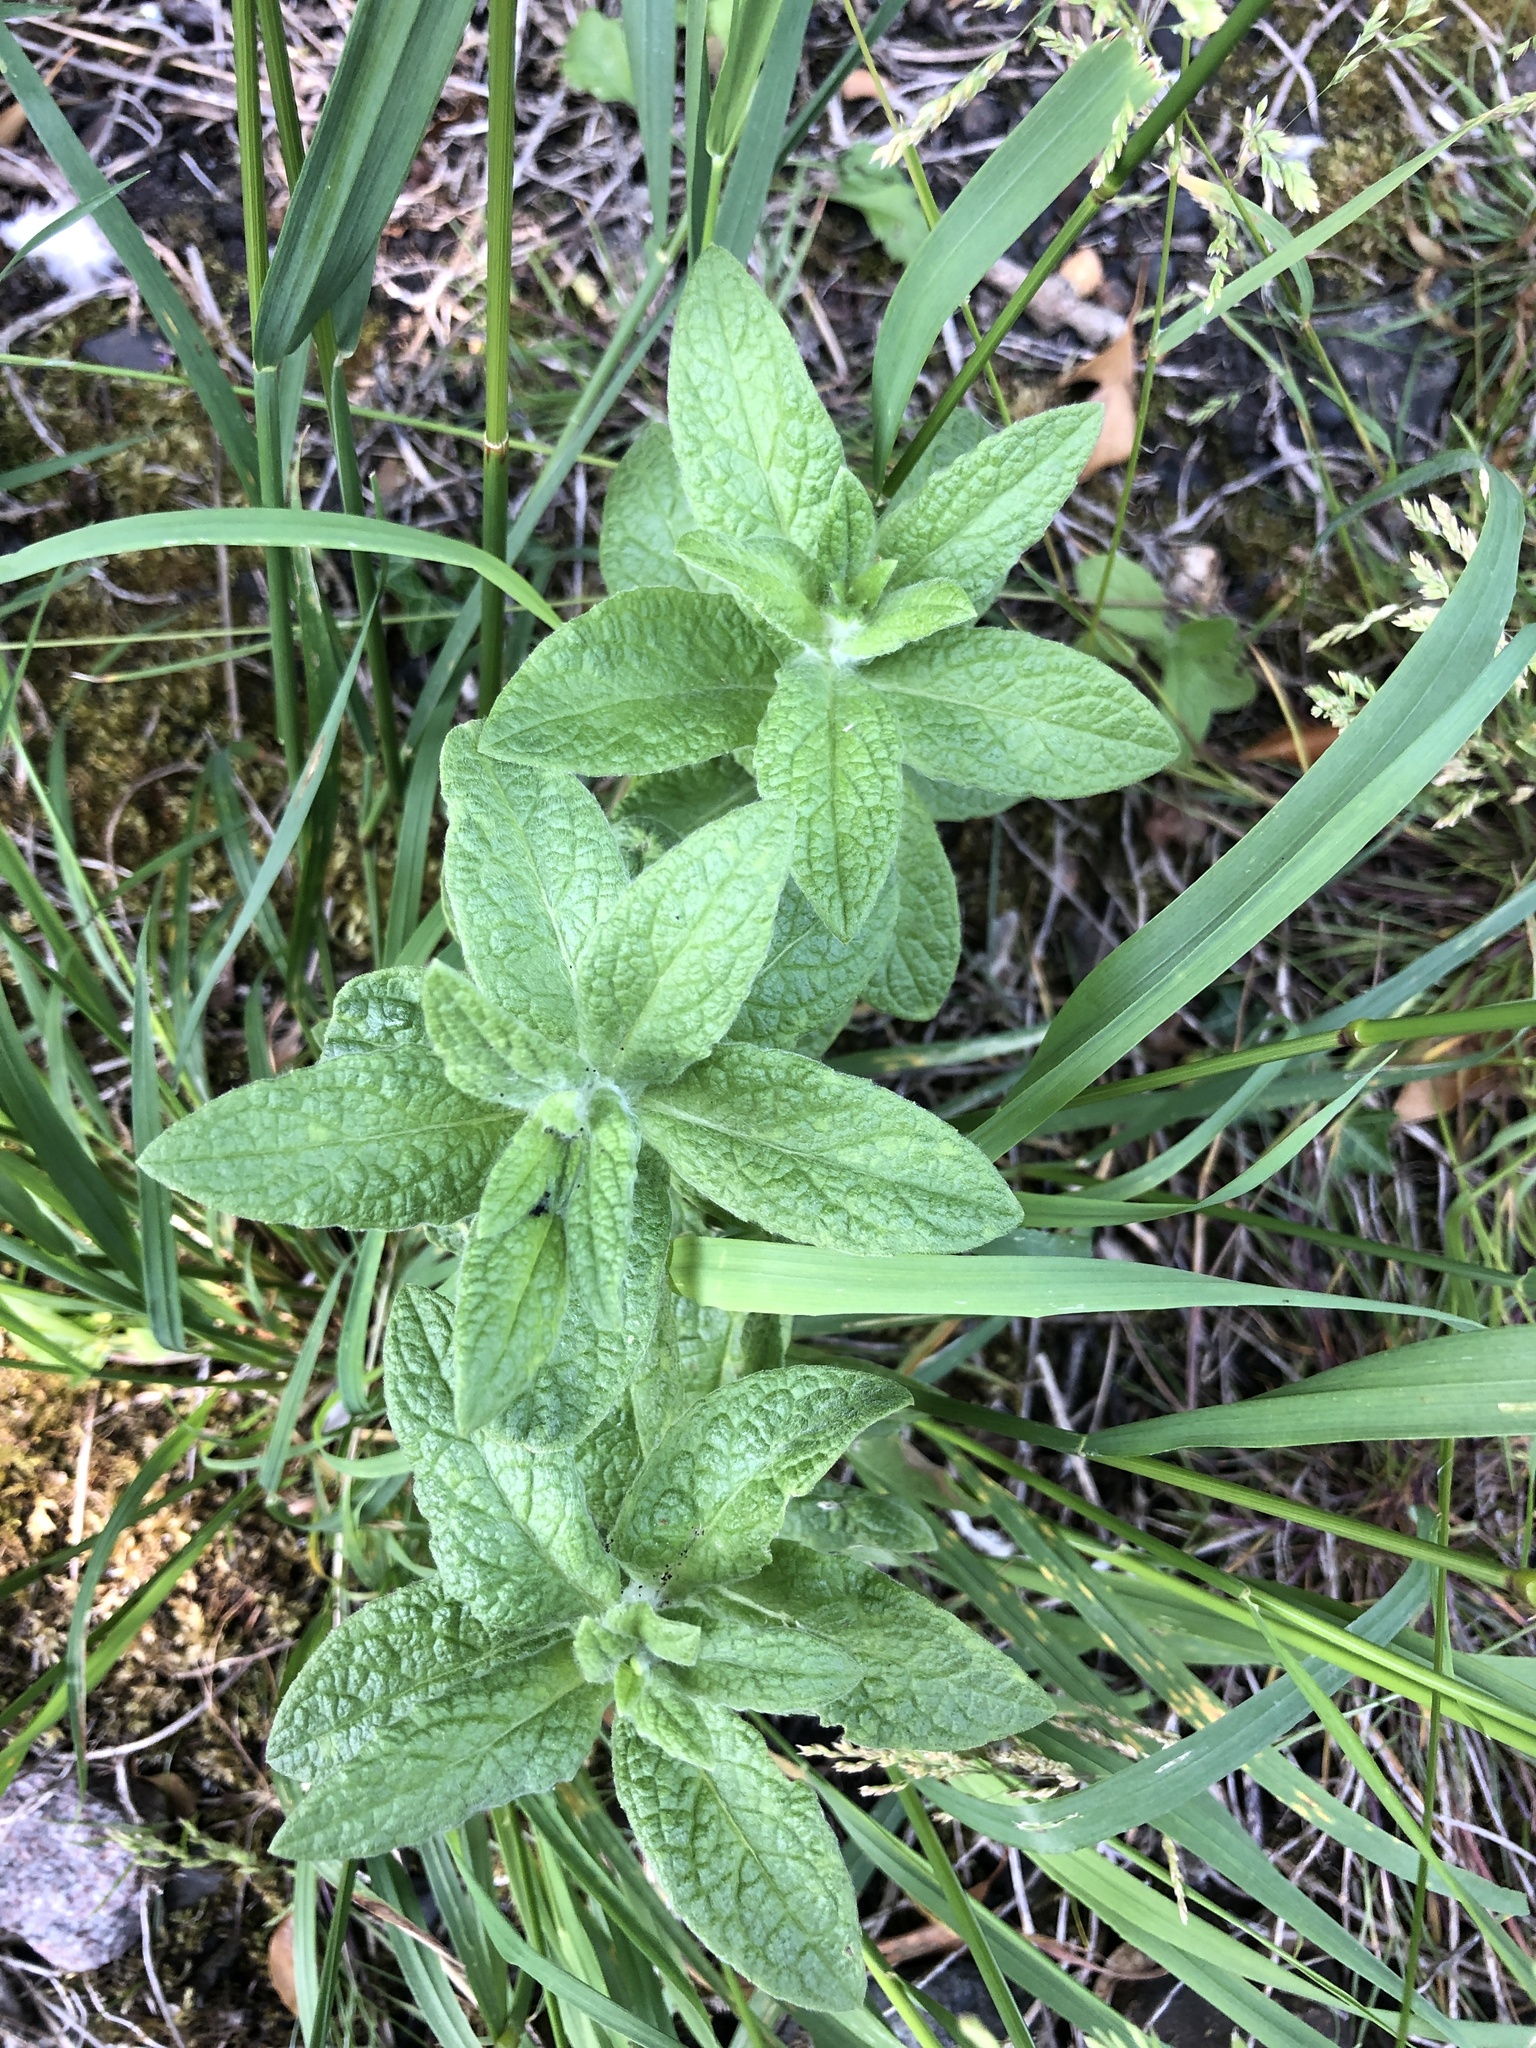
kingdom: Plantae
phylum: Tracheophyta
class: Magnoliopsida
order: Asterales
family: Asteraceae
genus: Pulicaria
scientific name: Pulicaria dysenterica
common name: Common fleabane
